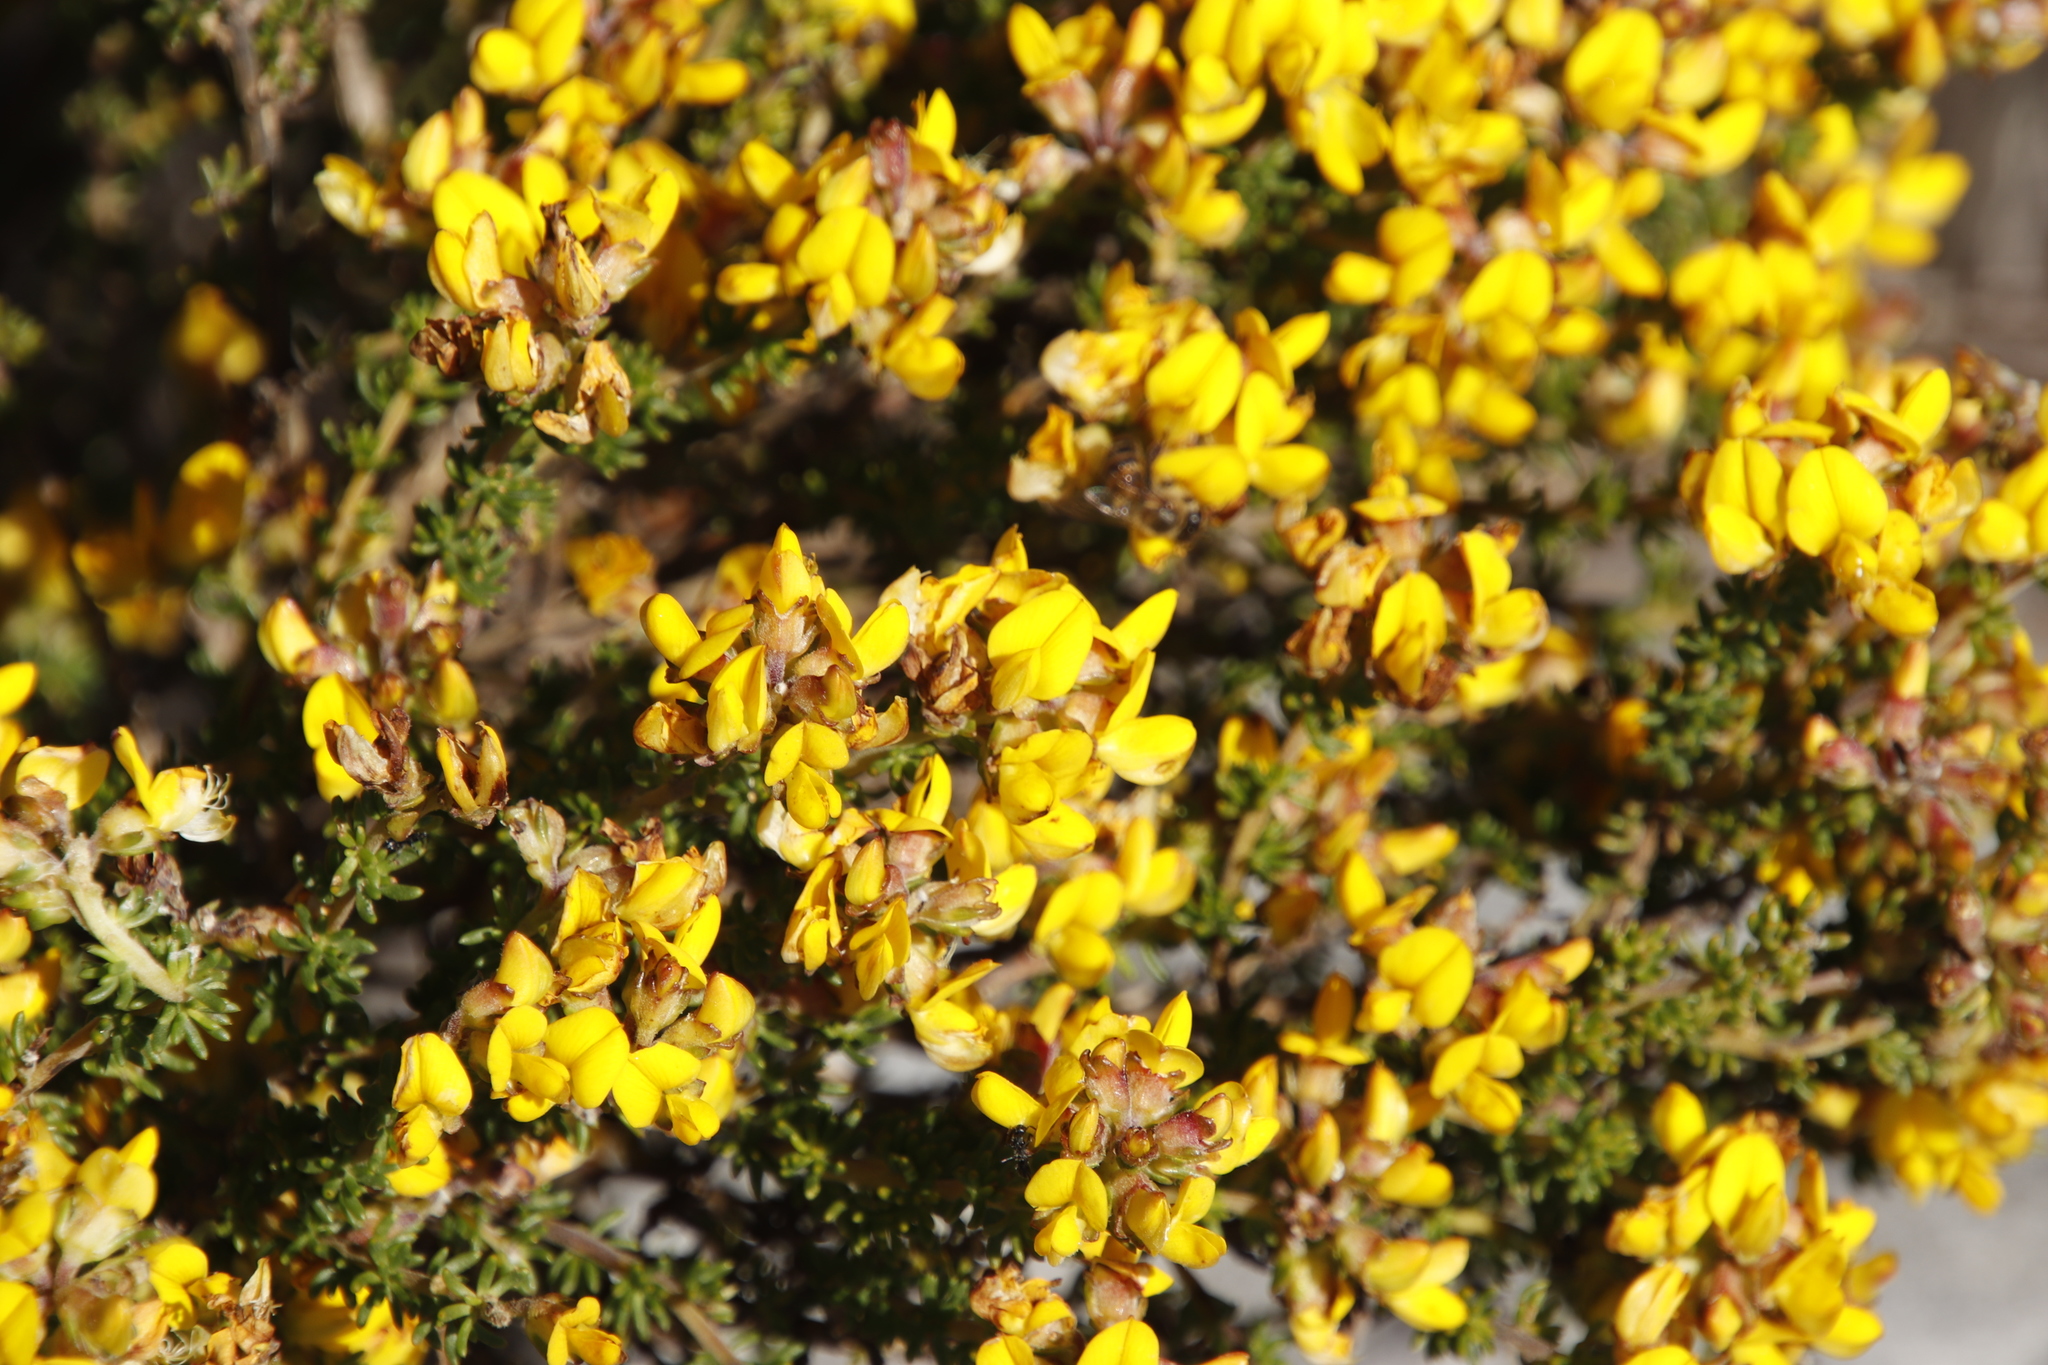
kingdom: Plantae
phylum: Tracheophyta
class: Magnoliopsida
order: Fabales
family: Fabaceae
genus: Aspalathus
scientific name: Aspalathus carnosa
